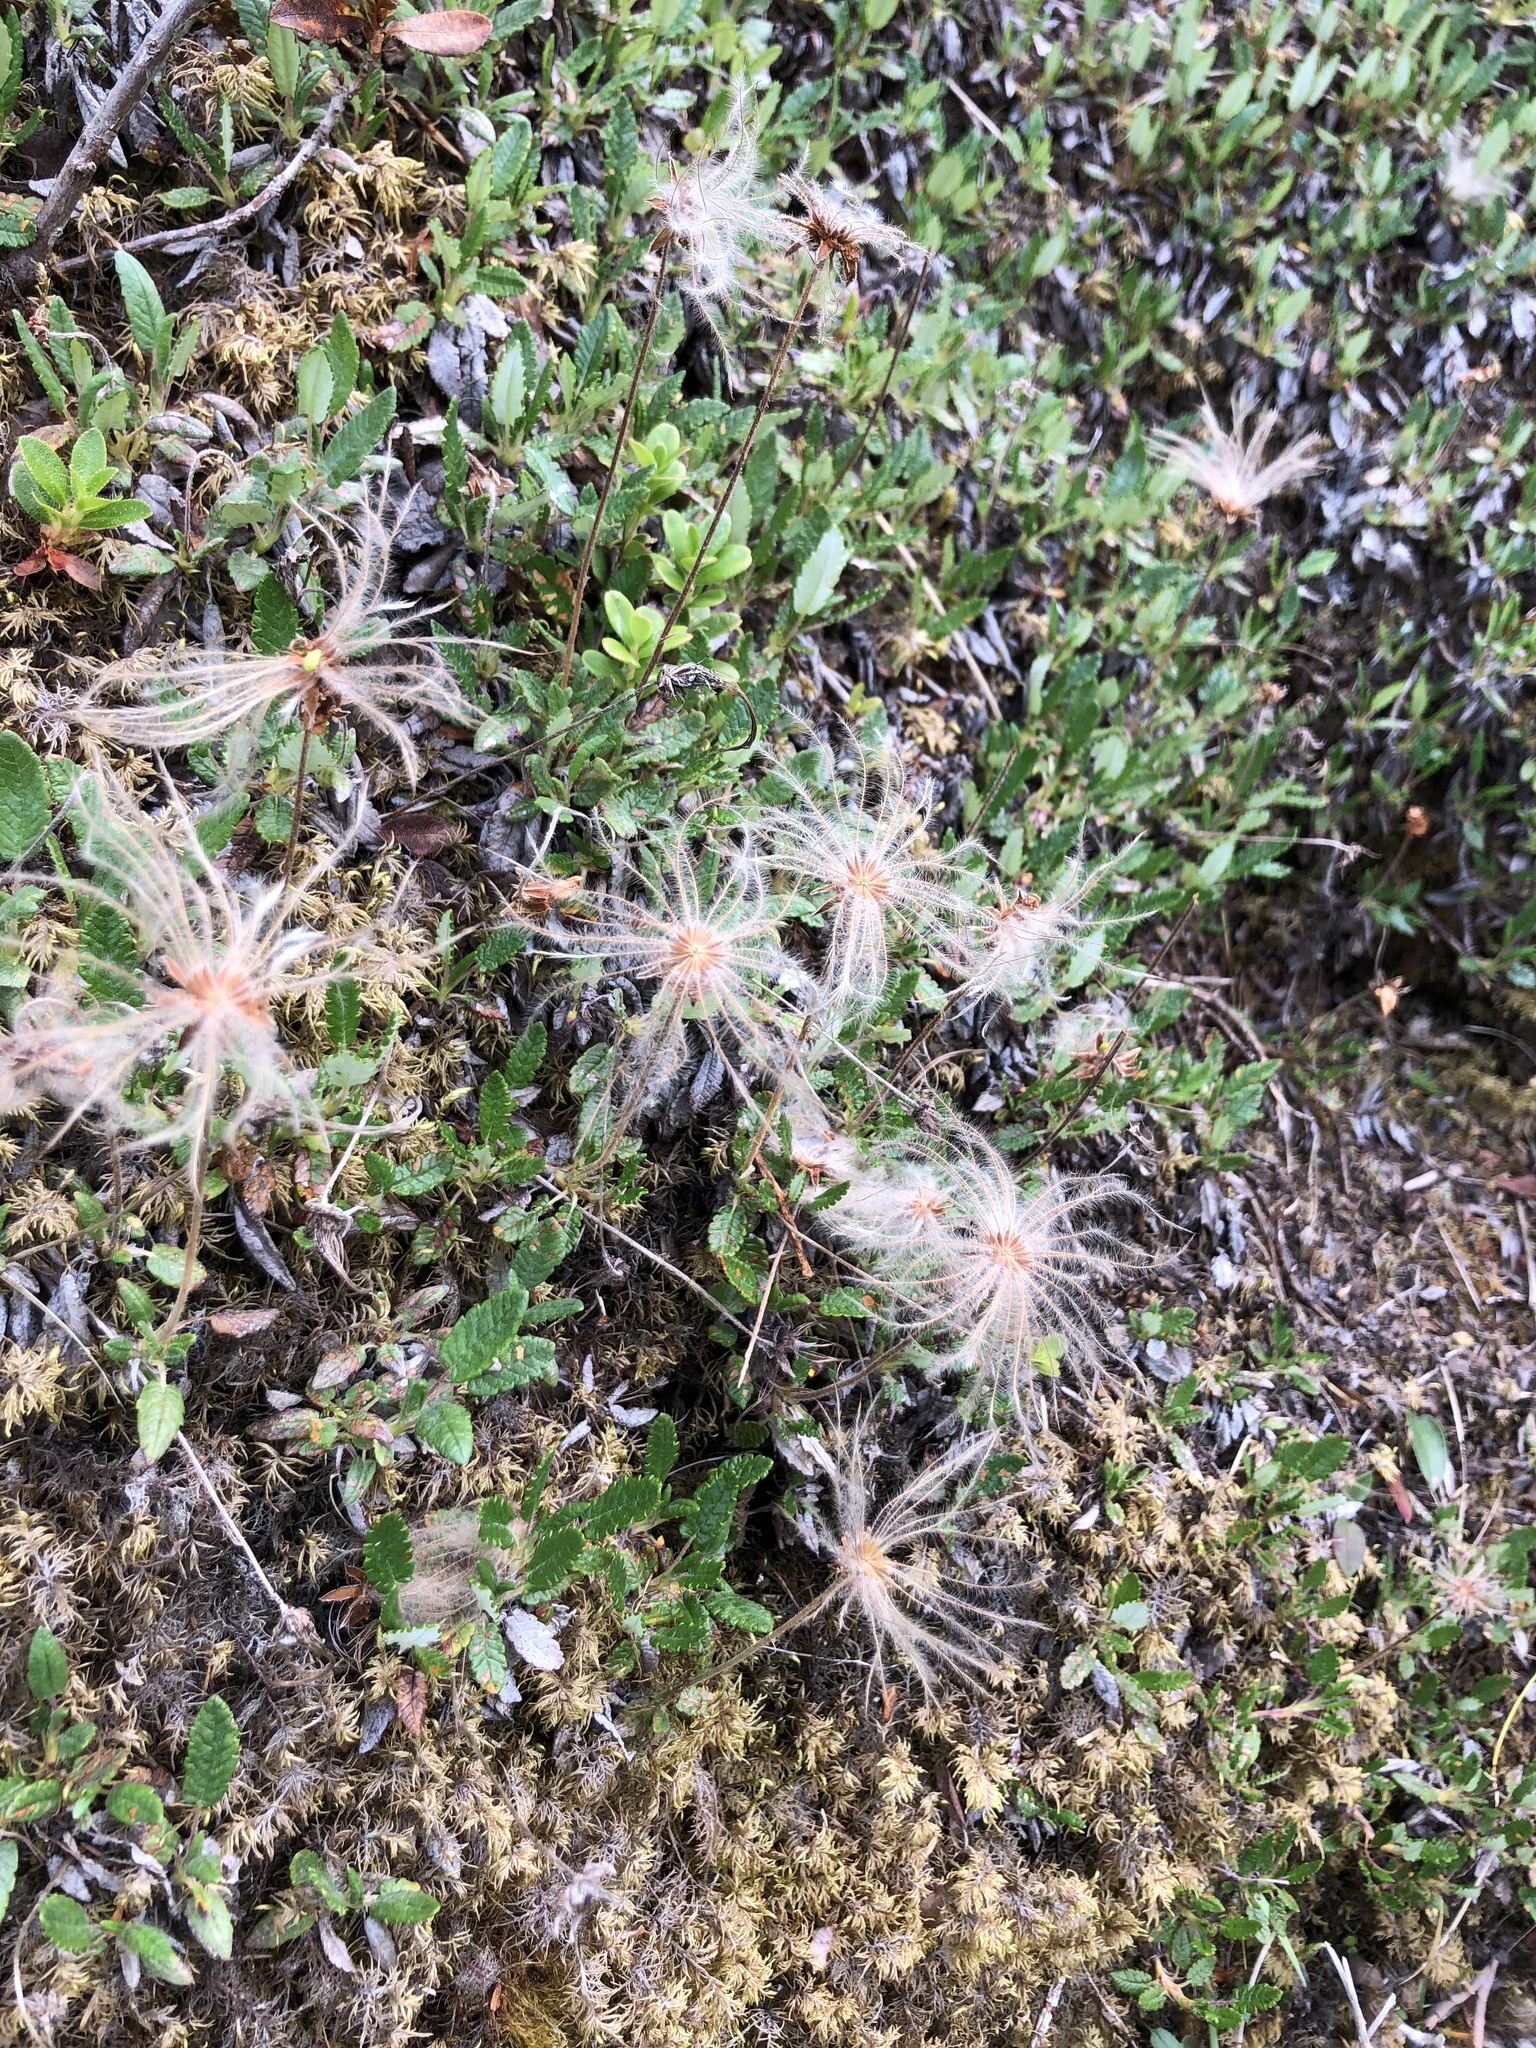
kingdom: Plantae
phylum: Tracheophyta
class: Magnoliopsida
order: Rosales
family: Rosaceae
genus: Dryas
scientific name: Dryas octopetala
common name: Eight-petal mountain-avens
